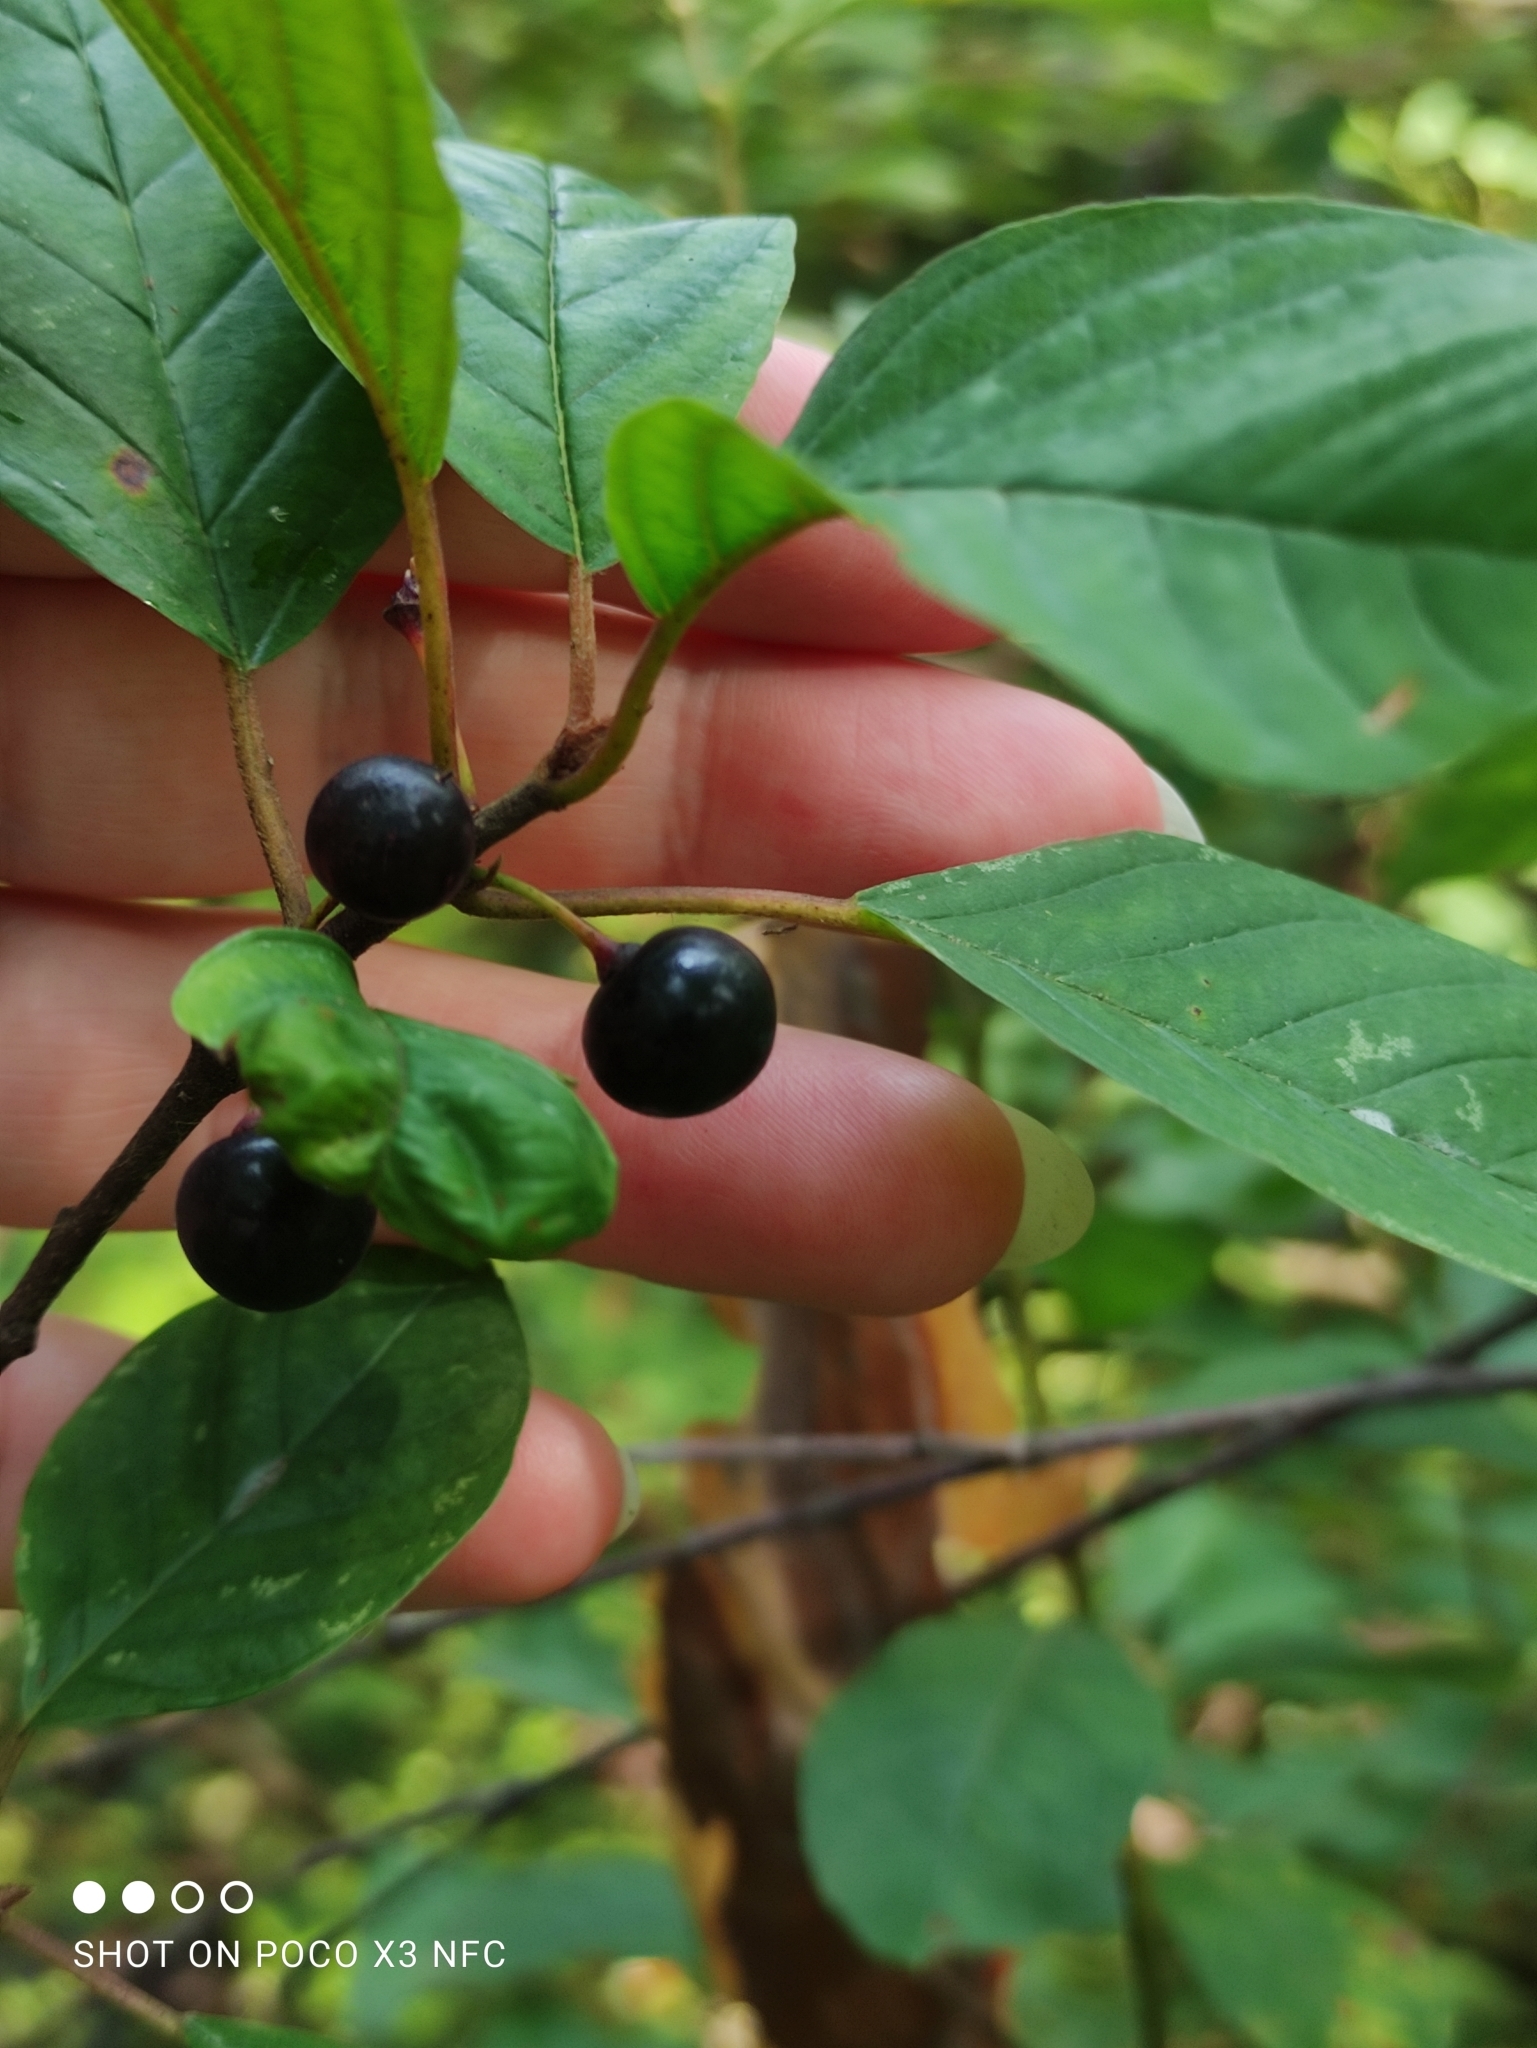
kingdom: Plantae
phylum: Tracheophyta
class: Magnoliopsida
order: Rosales
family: Rhamnaceae
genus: Frangula
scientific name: Frangula alnus
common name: Alder buckthorn
